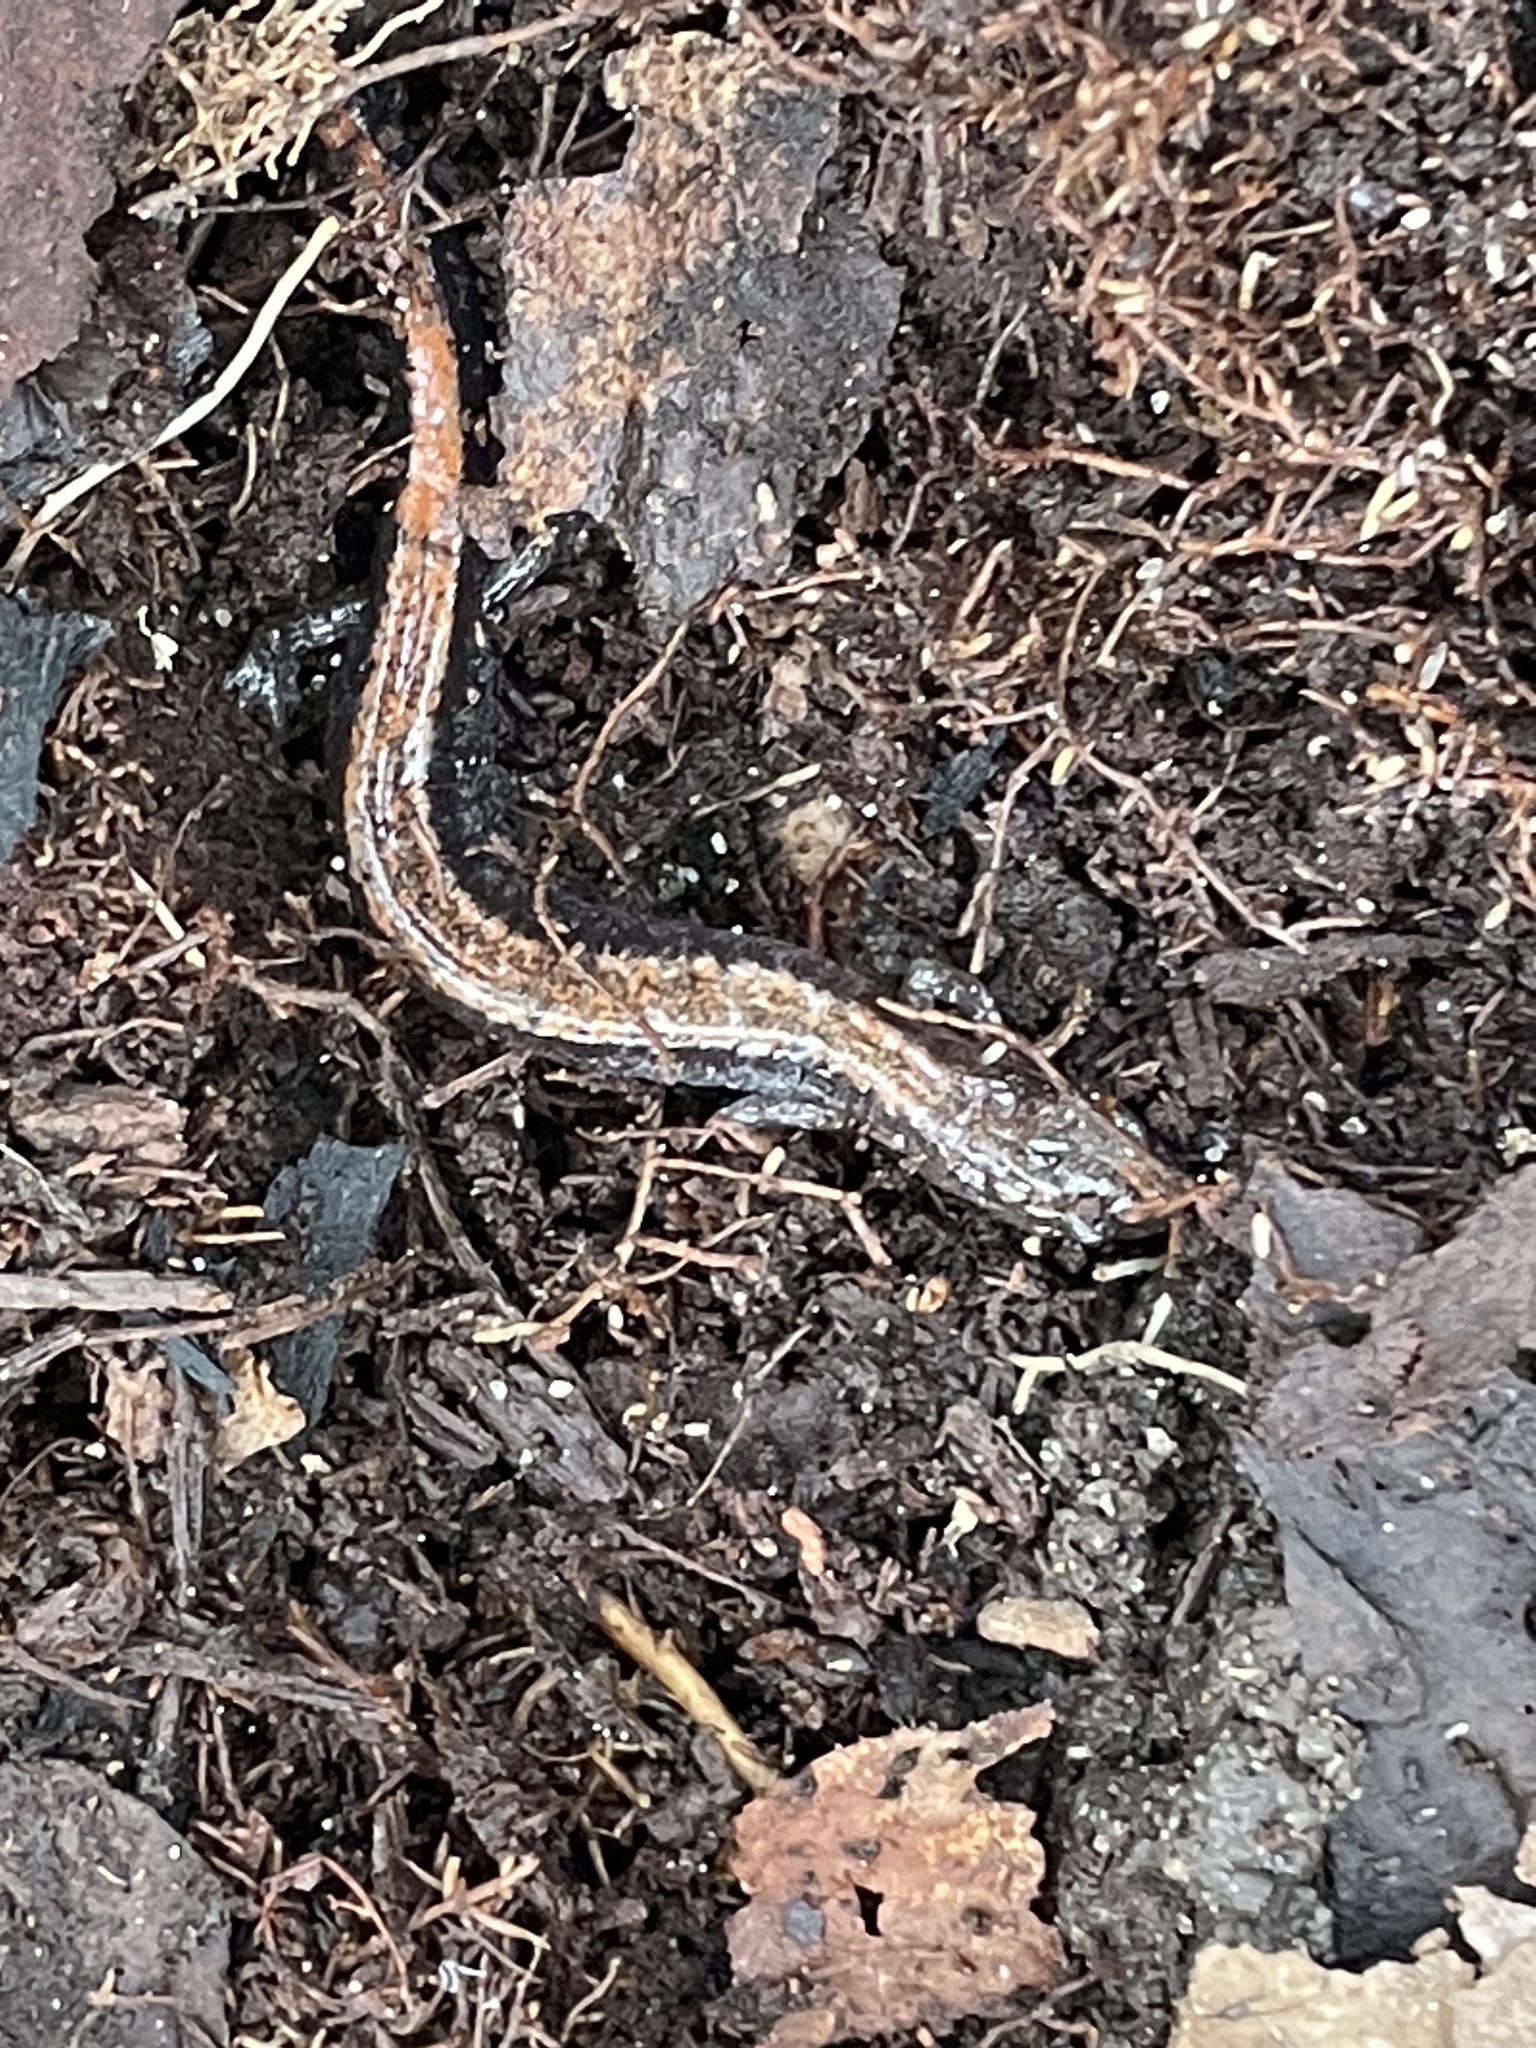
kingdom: Animalia
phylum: Chordata
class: Amphibia
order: Caudata
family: Plethodontidae
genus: Plethodon
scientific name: Plethodon cinereus
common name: Redback salamander
